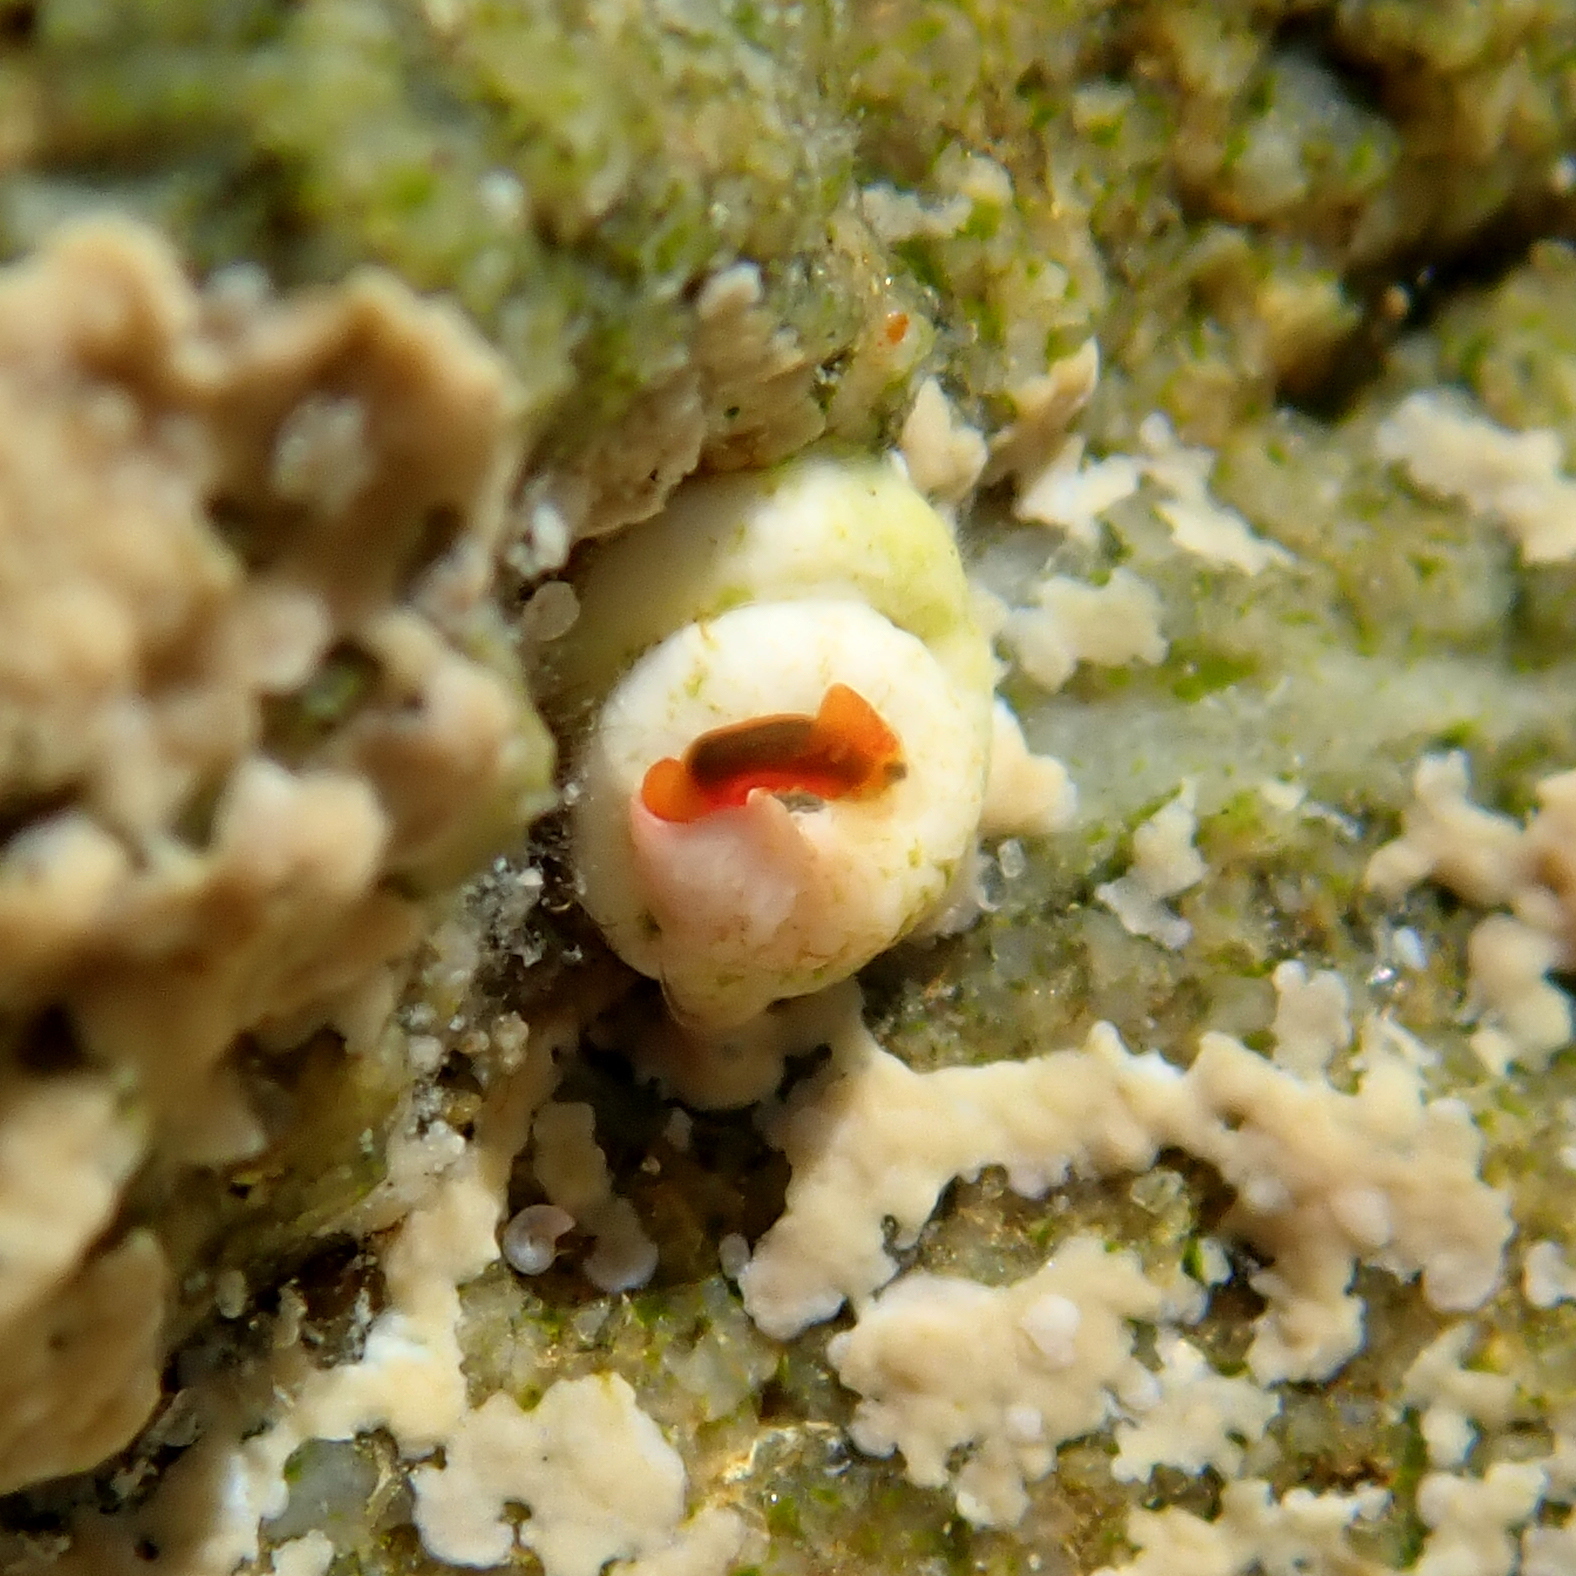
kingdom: Animalia
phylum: Mollusca
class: Gastropoda
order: Nudibranchia
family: Okadaiidae
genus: Vayssierea
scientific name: Vayssierea cinnabarea
